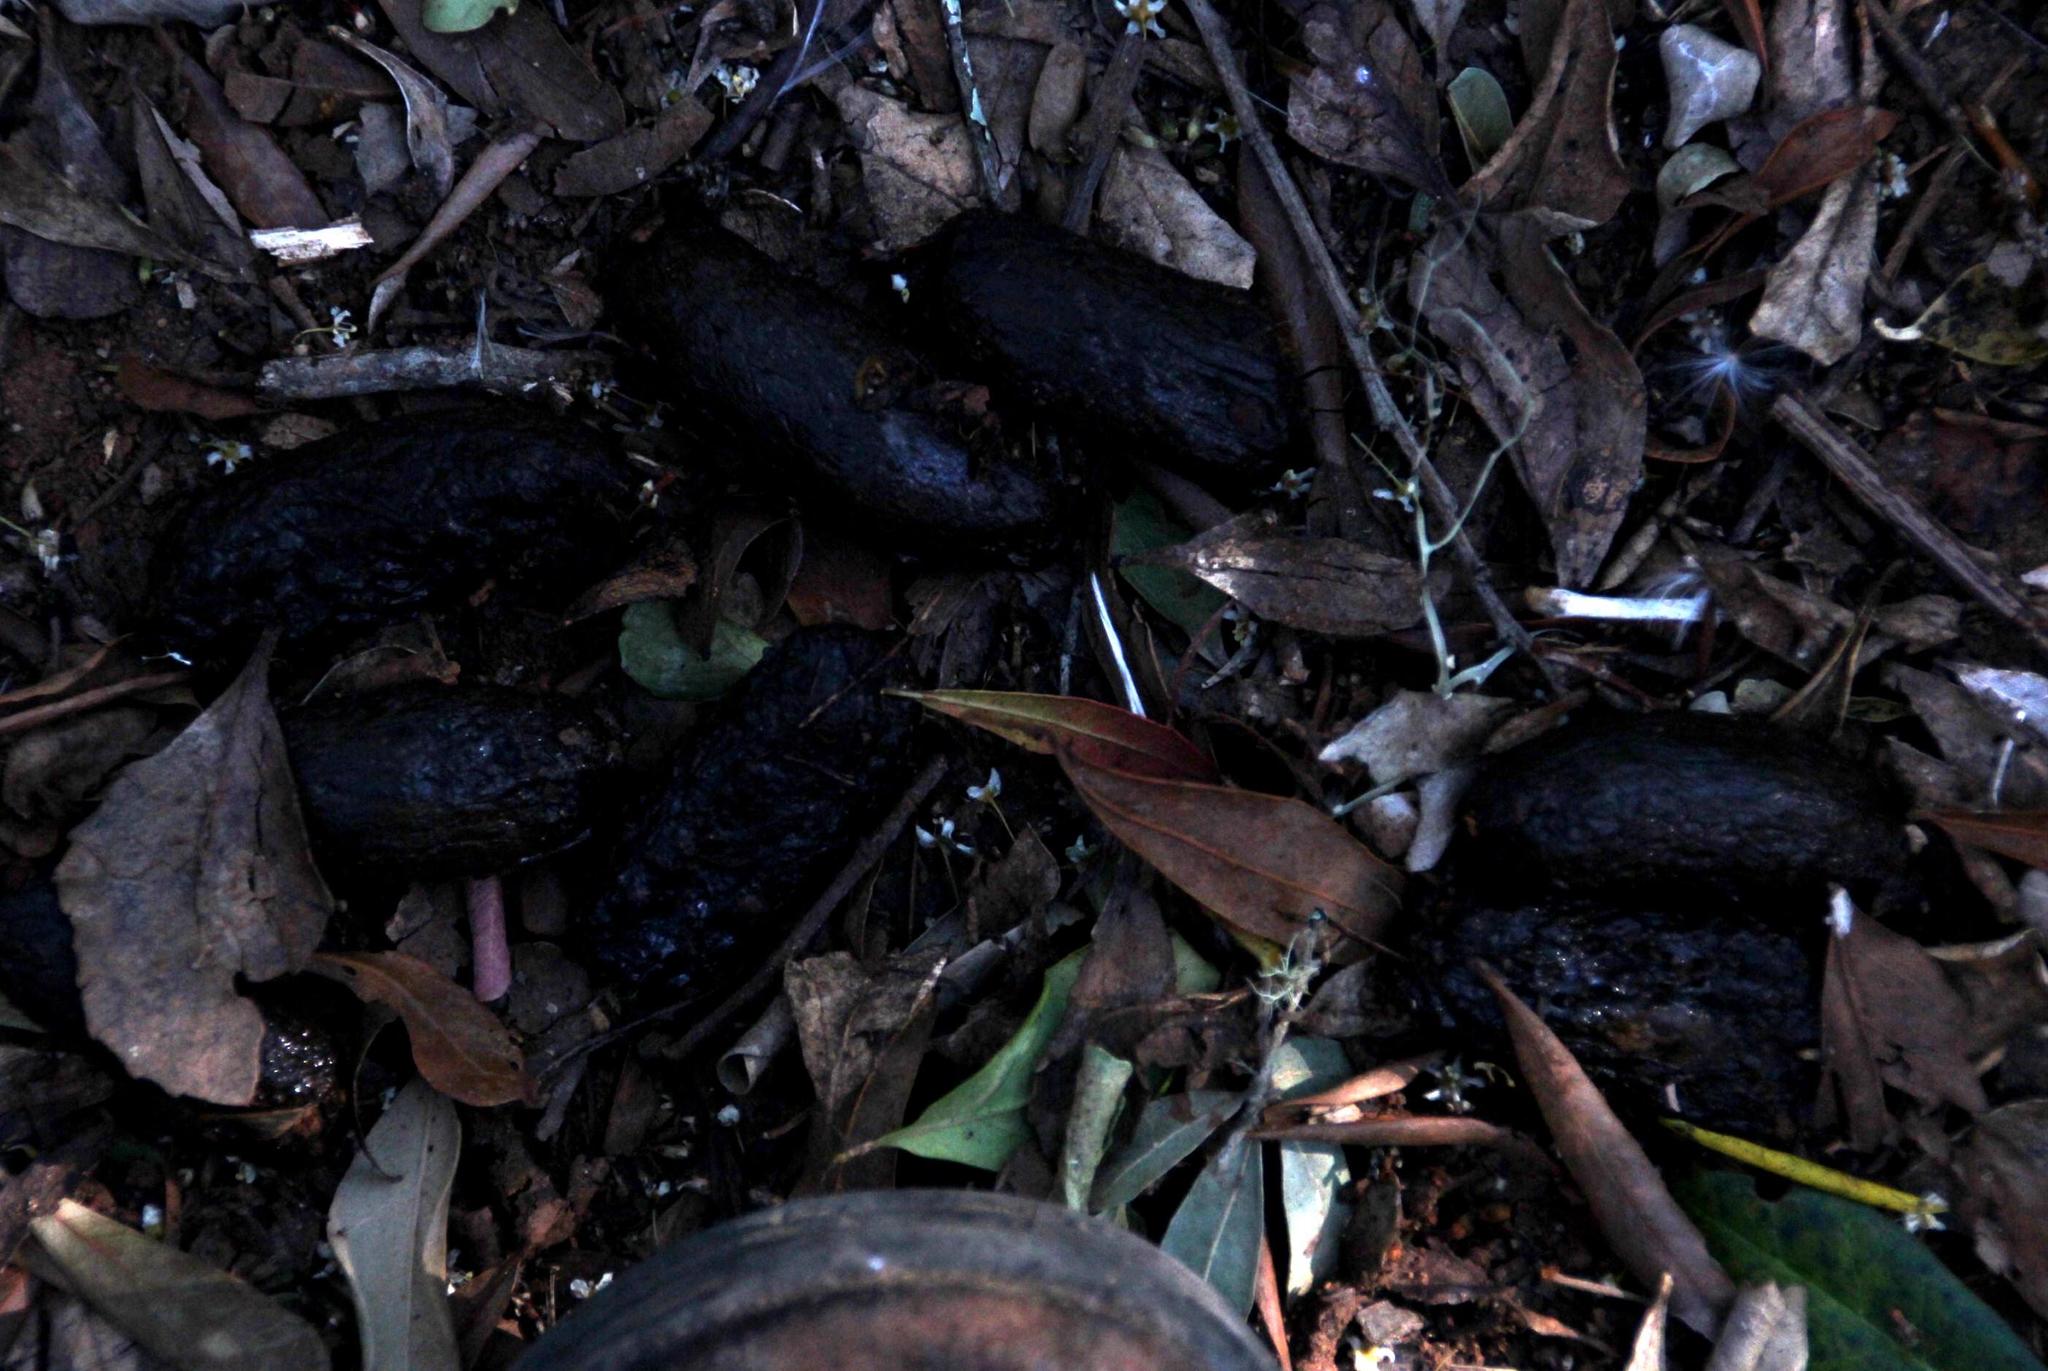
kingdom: Animalia
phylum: Chordata
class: Mammalia
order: Rodentia
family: Hystricidae
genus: Hystrix
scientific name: Hystrix africaeaustralis
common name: Cape porcupine
